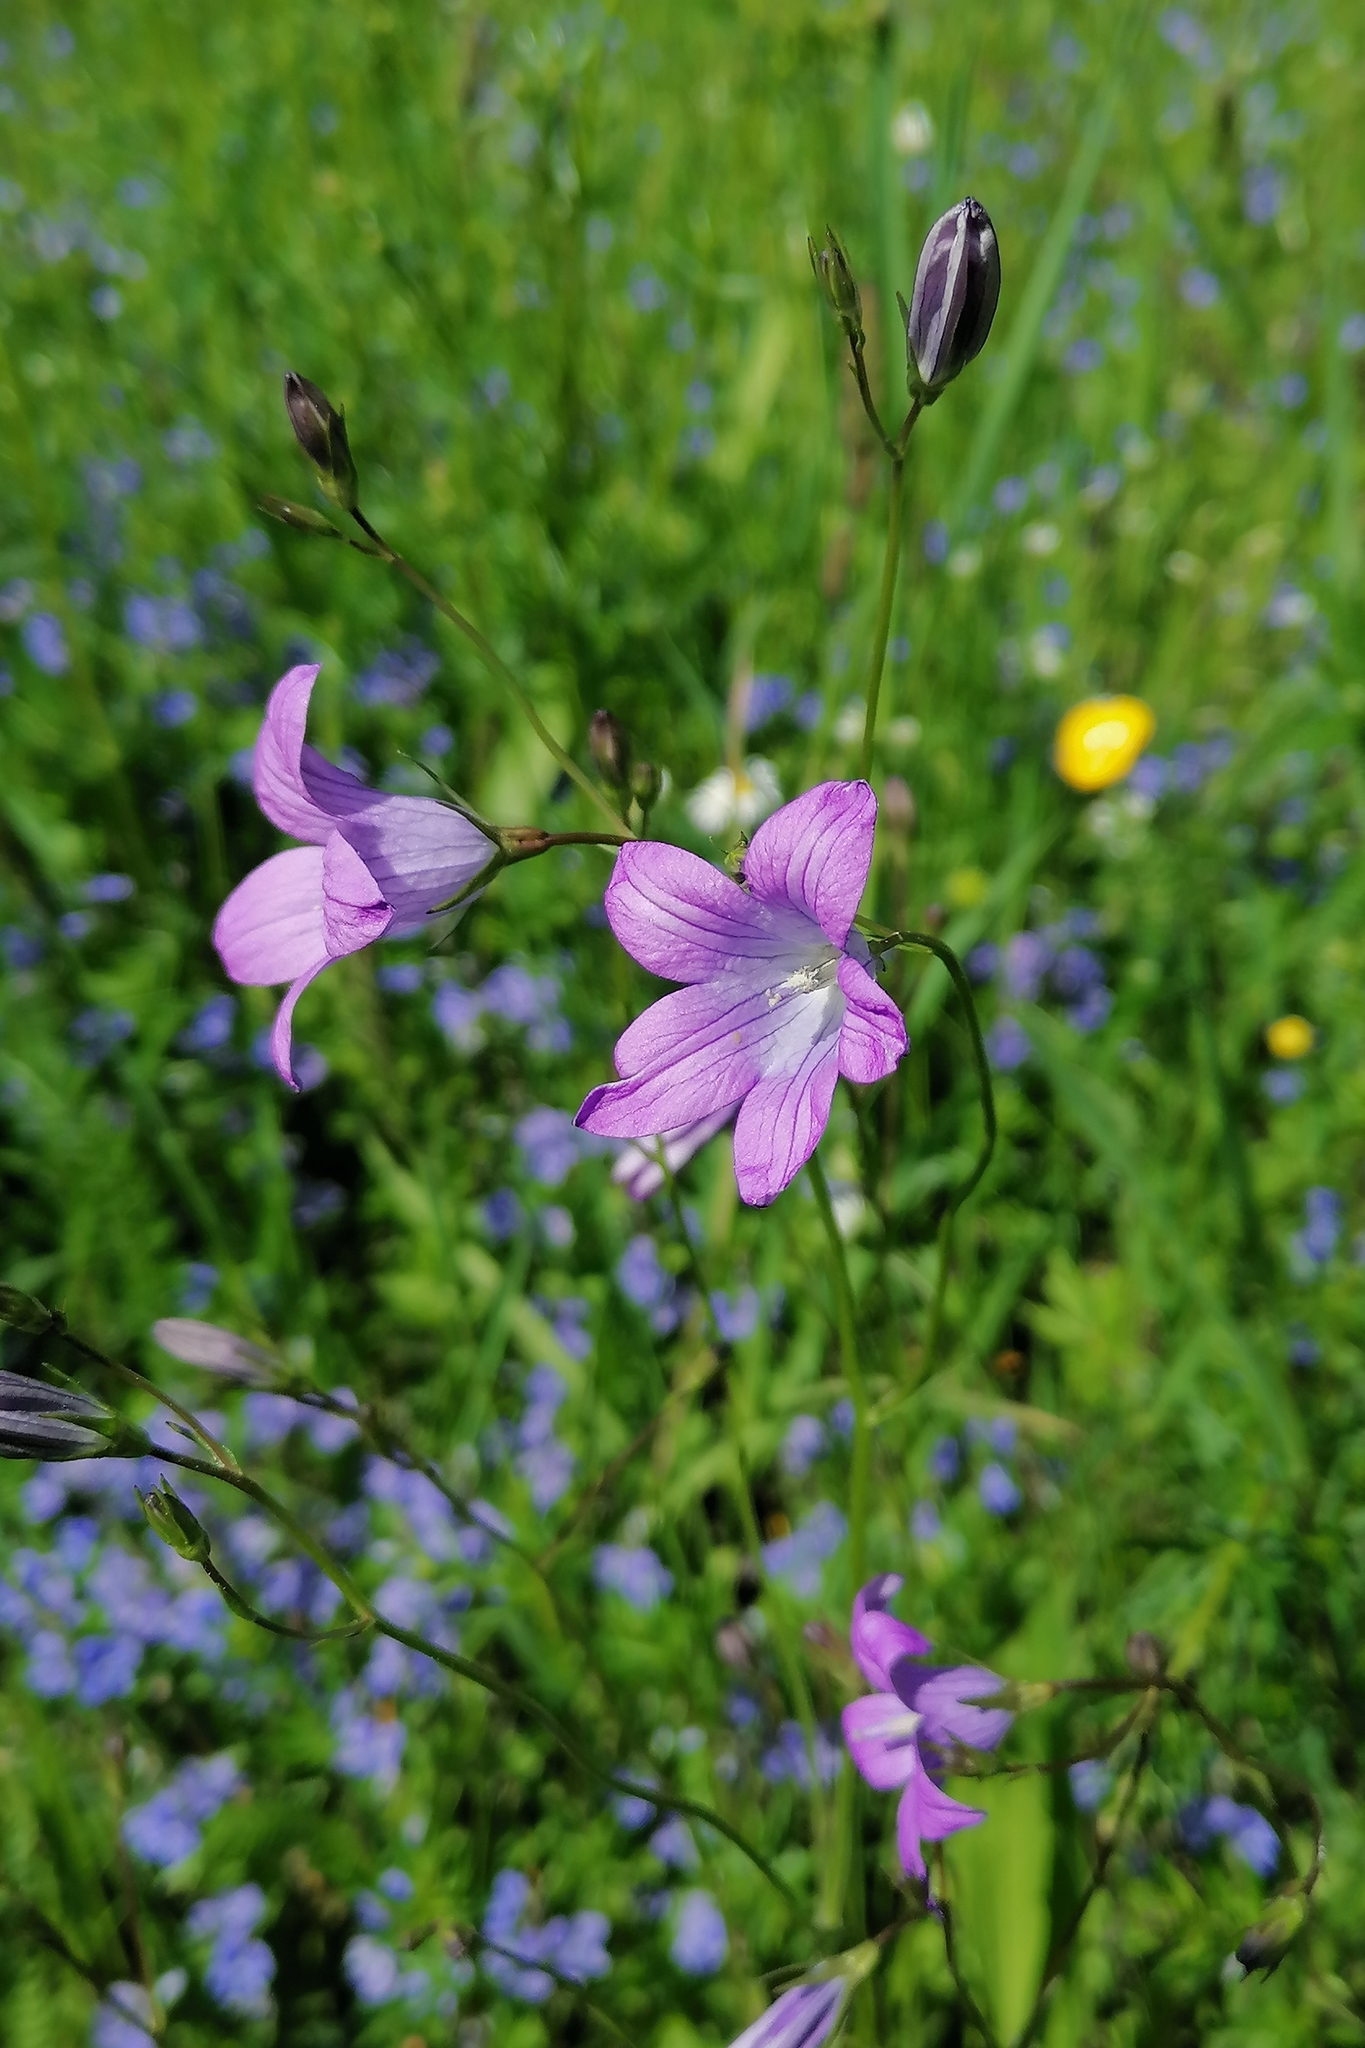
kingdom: Plantae
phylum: Tracheophyta
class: Magnoliopsida
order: Asterales
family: Campanulaceae
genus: Campanula
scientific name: Campanula patula
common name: Spreading bellflower
